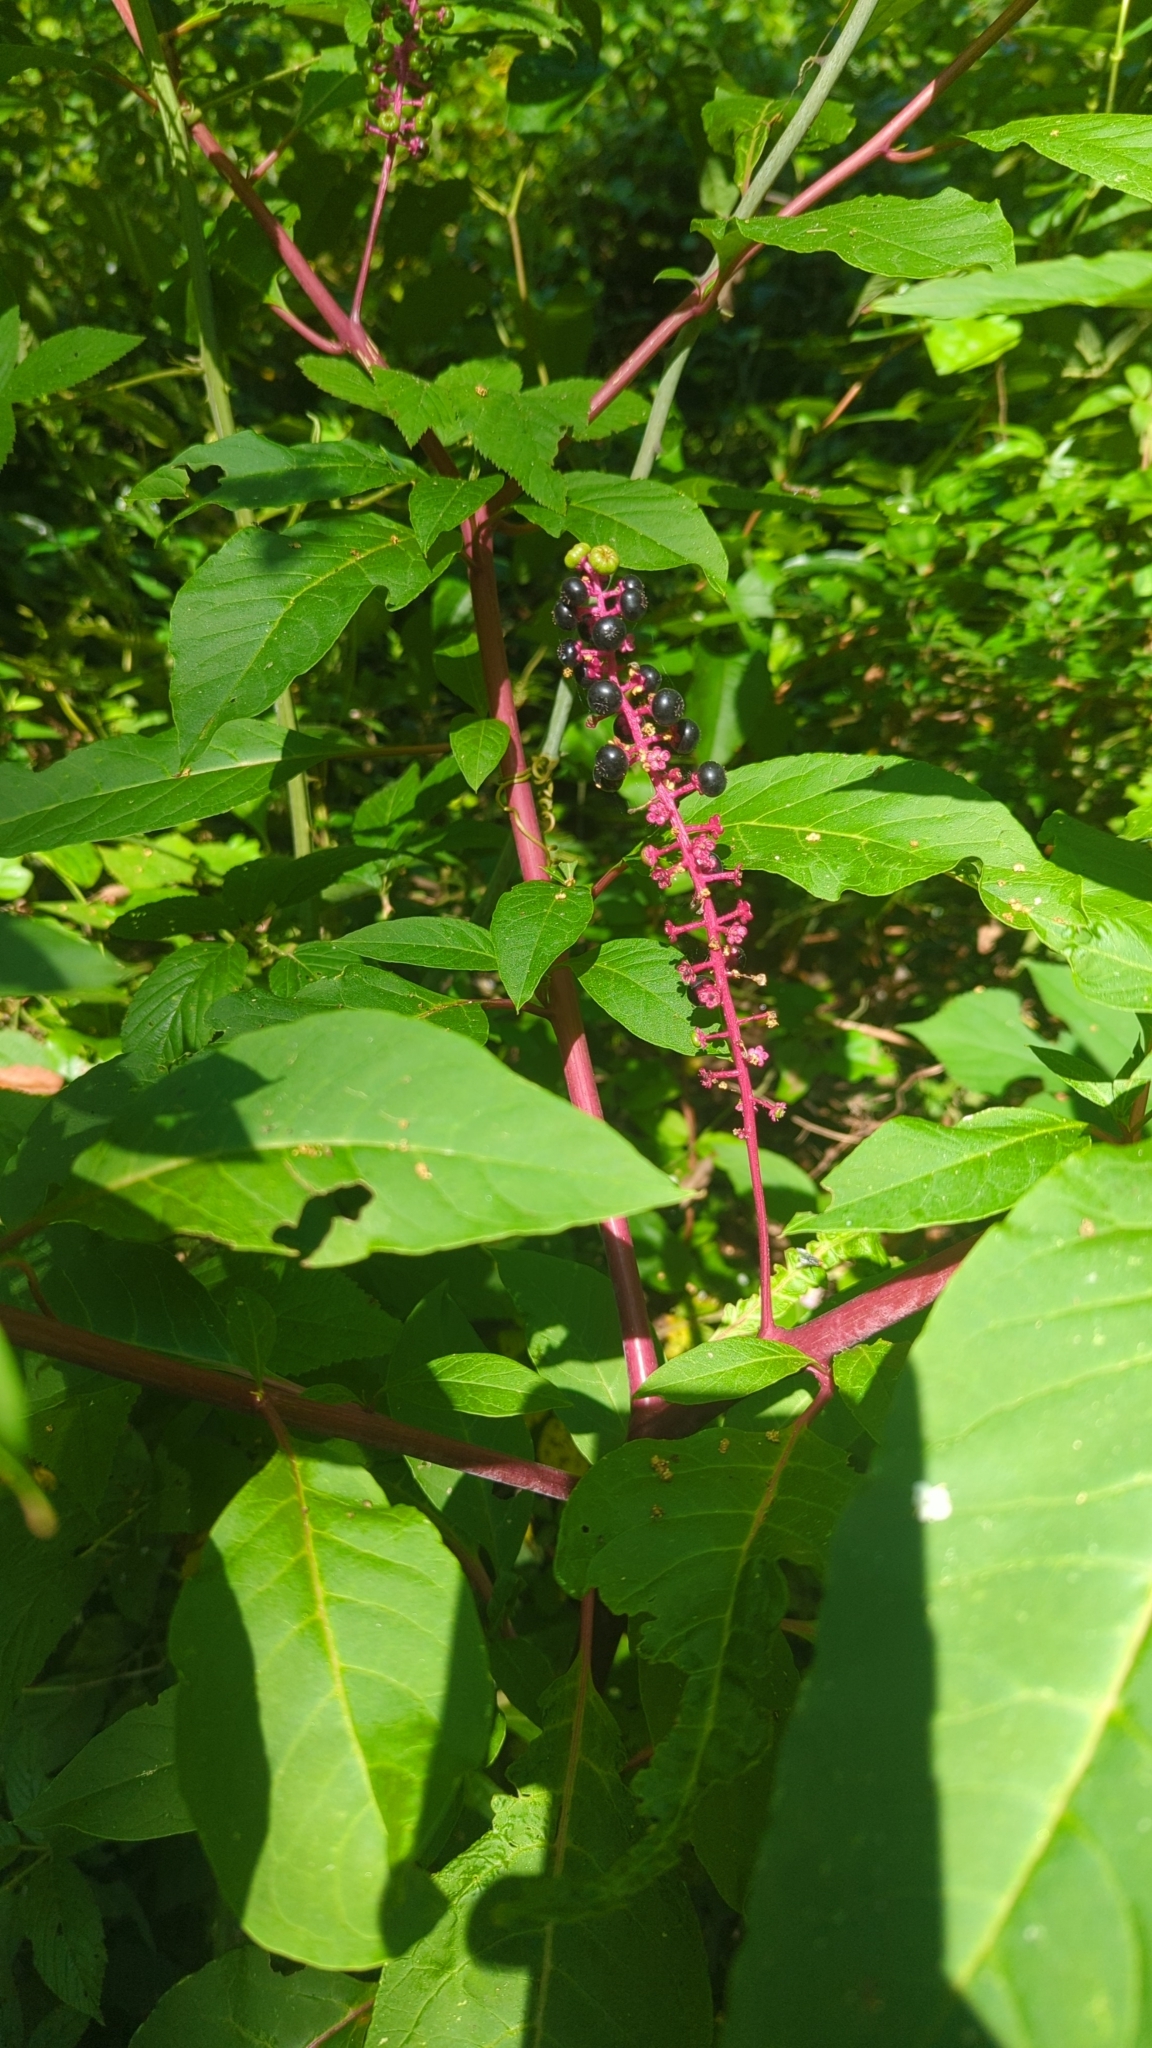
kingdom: Plantae
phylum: Tracheophyta
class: Magnoliopsida
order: Caryophyllales
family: Phytolaccaceae
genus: Phytolacca
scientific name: Phytolacca americana
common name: American pokeweed
